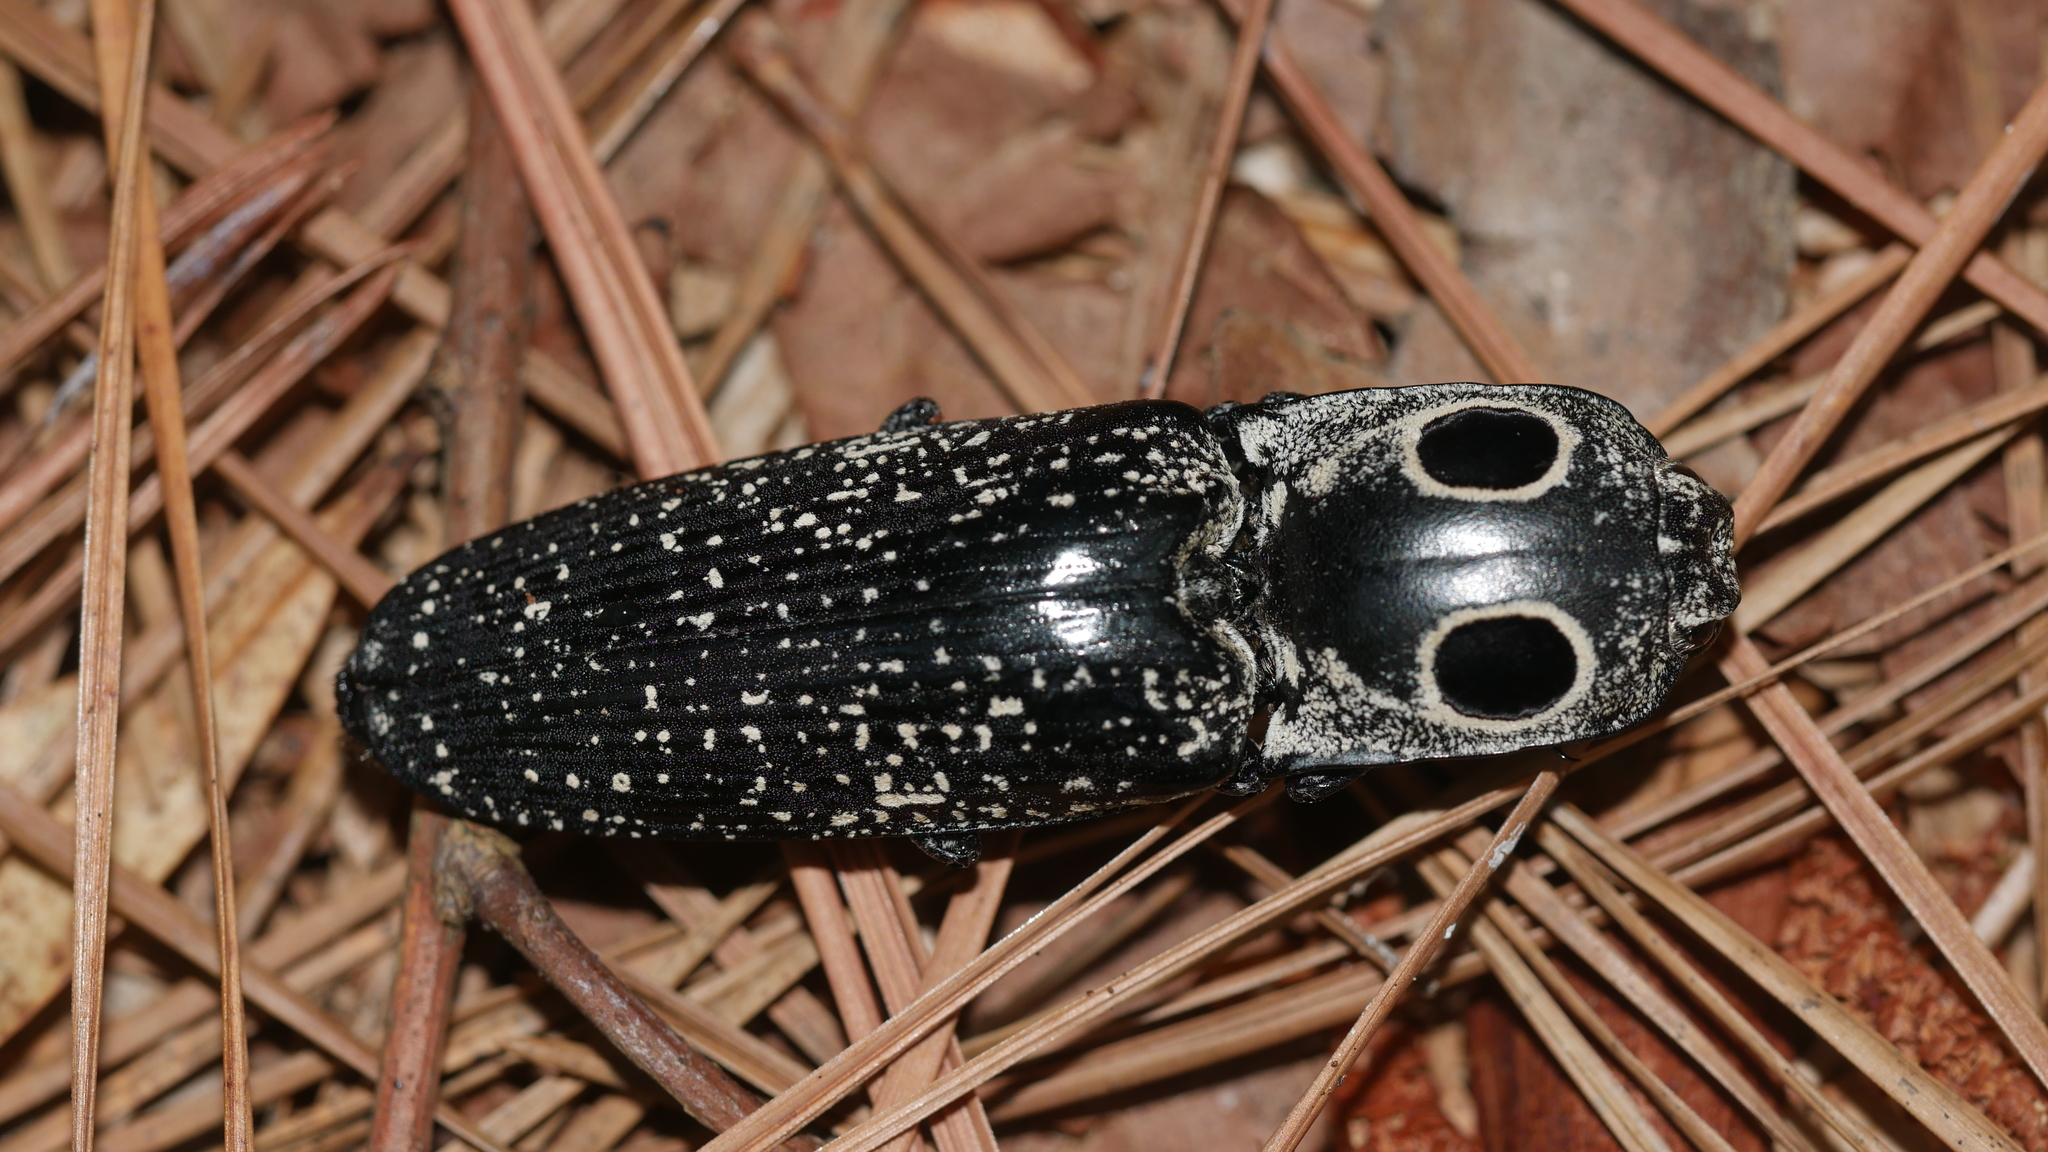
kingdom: Animalia
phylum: Arthropoda
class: Insecta
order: Coleoptera
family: Elateridae
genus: Alaus
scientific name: Alaus oculatus
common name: Eastern eyed click beetle
